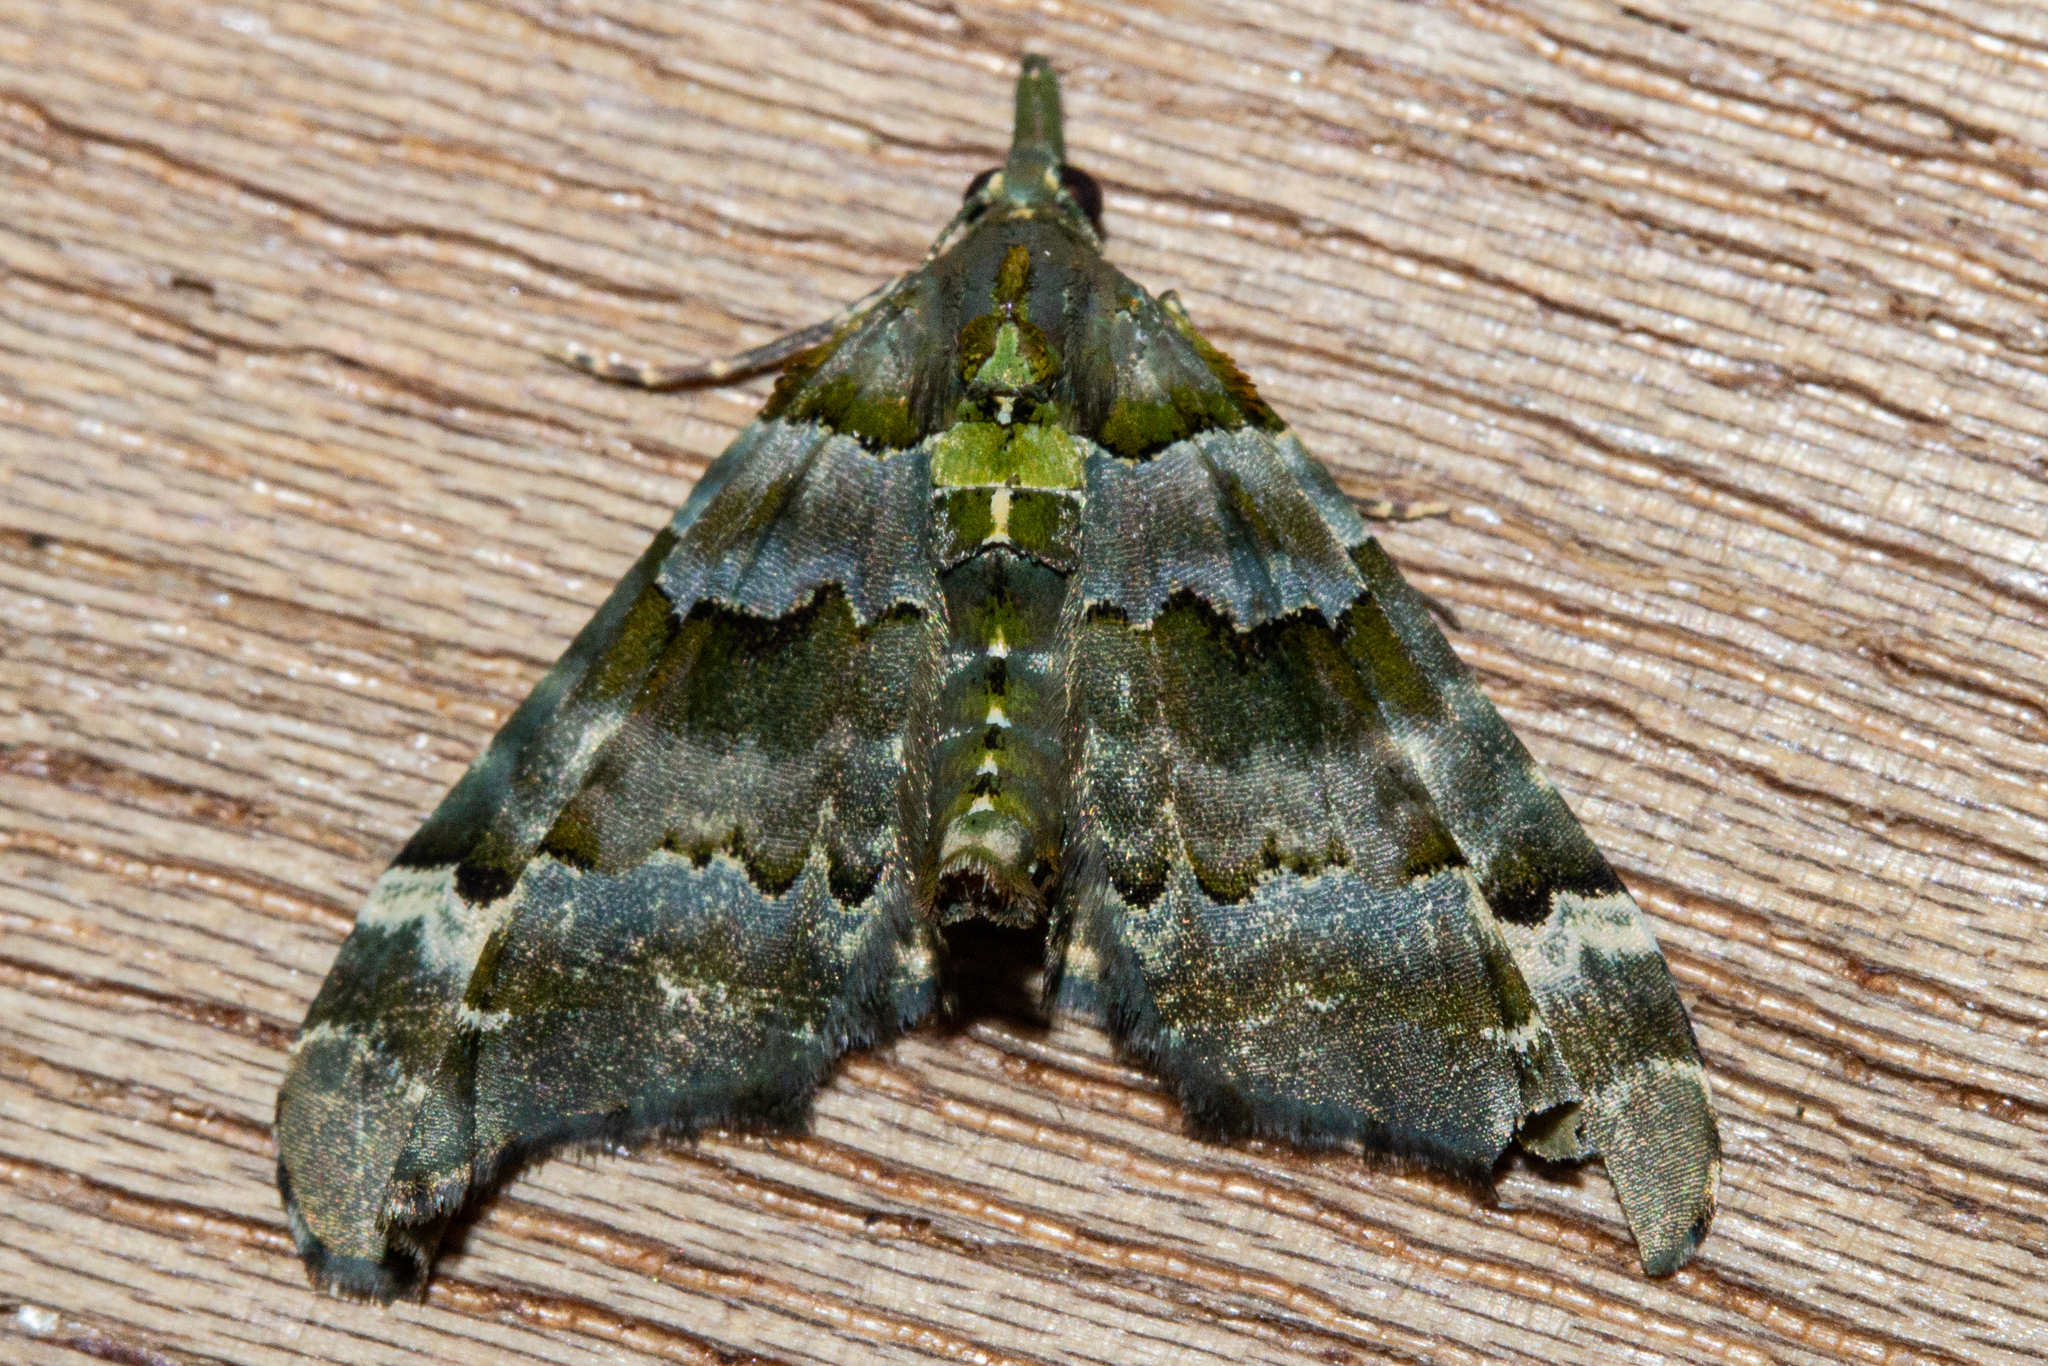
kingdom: Animalia
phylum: Arthropoda
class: Insecta
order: Lepidoptera
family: Geometridae
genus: Elvia
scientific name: Elvia glaucata
